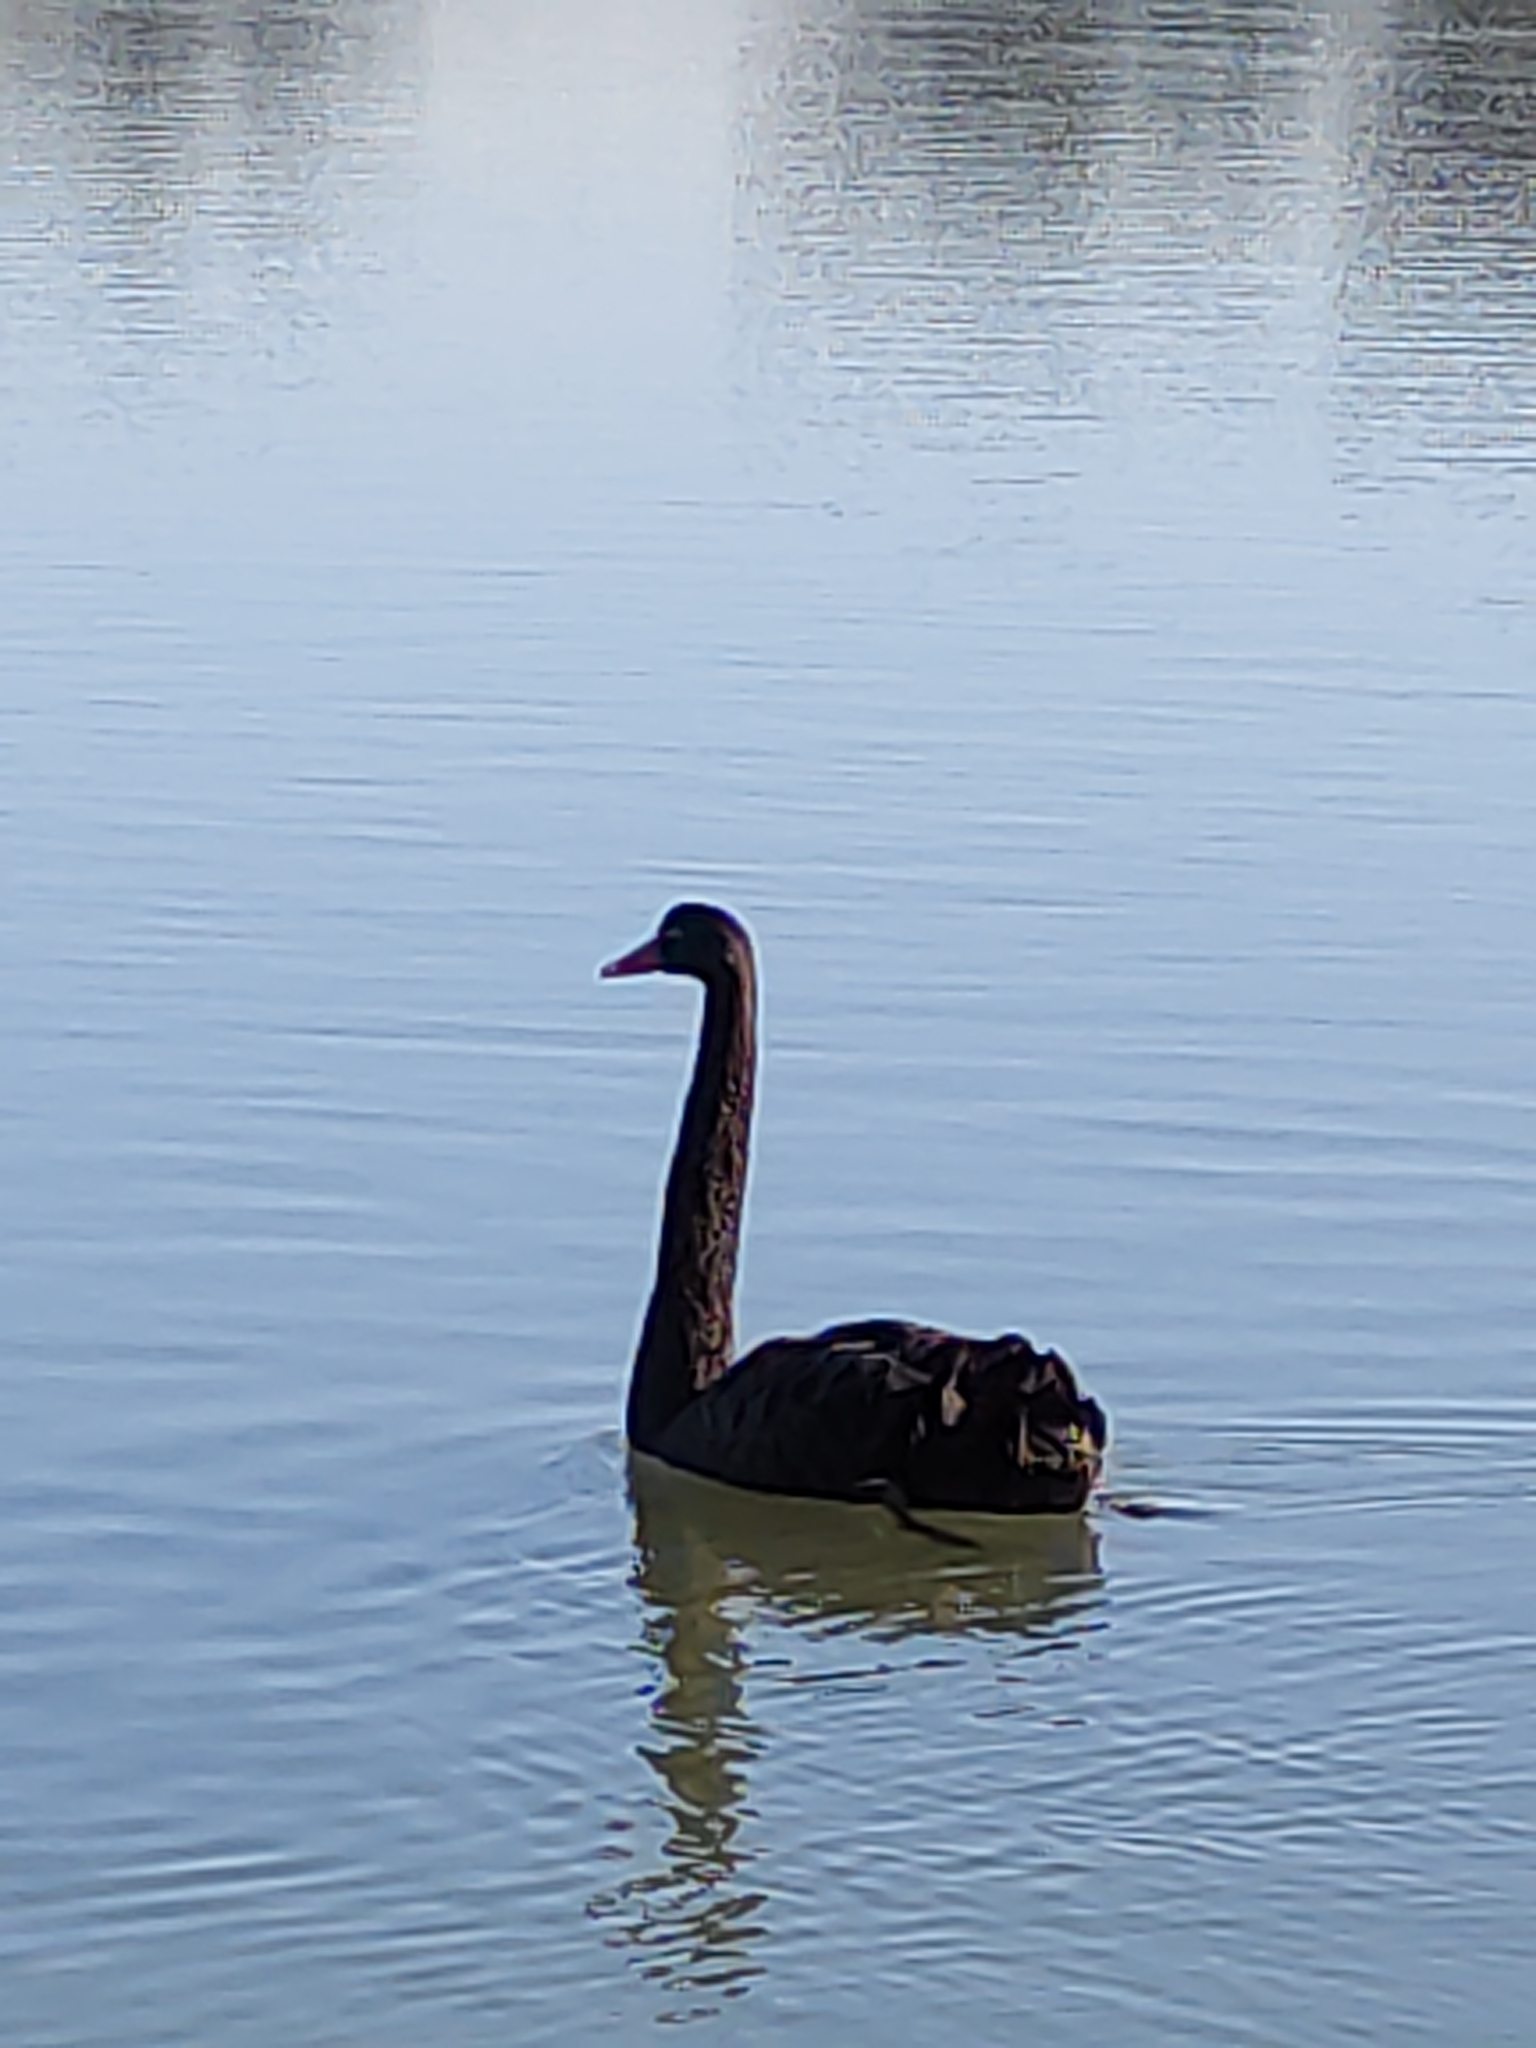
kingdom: Animalia
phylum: Chordata
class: Aves
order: Anseriformes
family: Anatidae
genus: Cygnus
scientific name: Cygnus atratus
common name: Black swan
